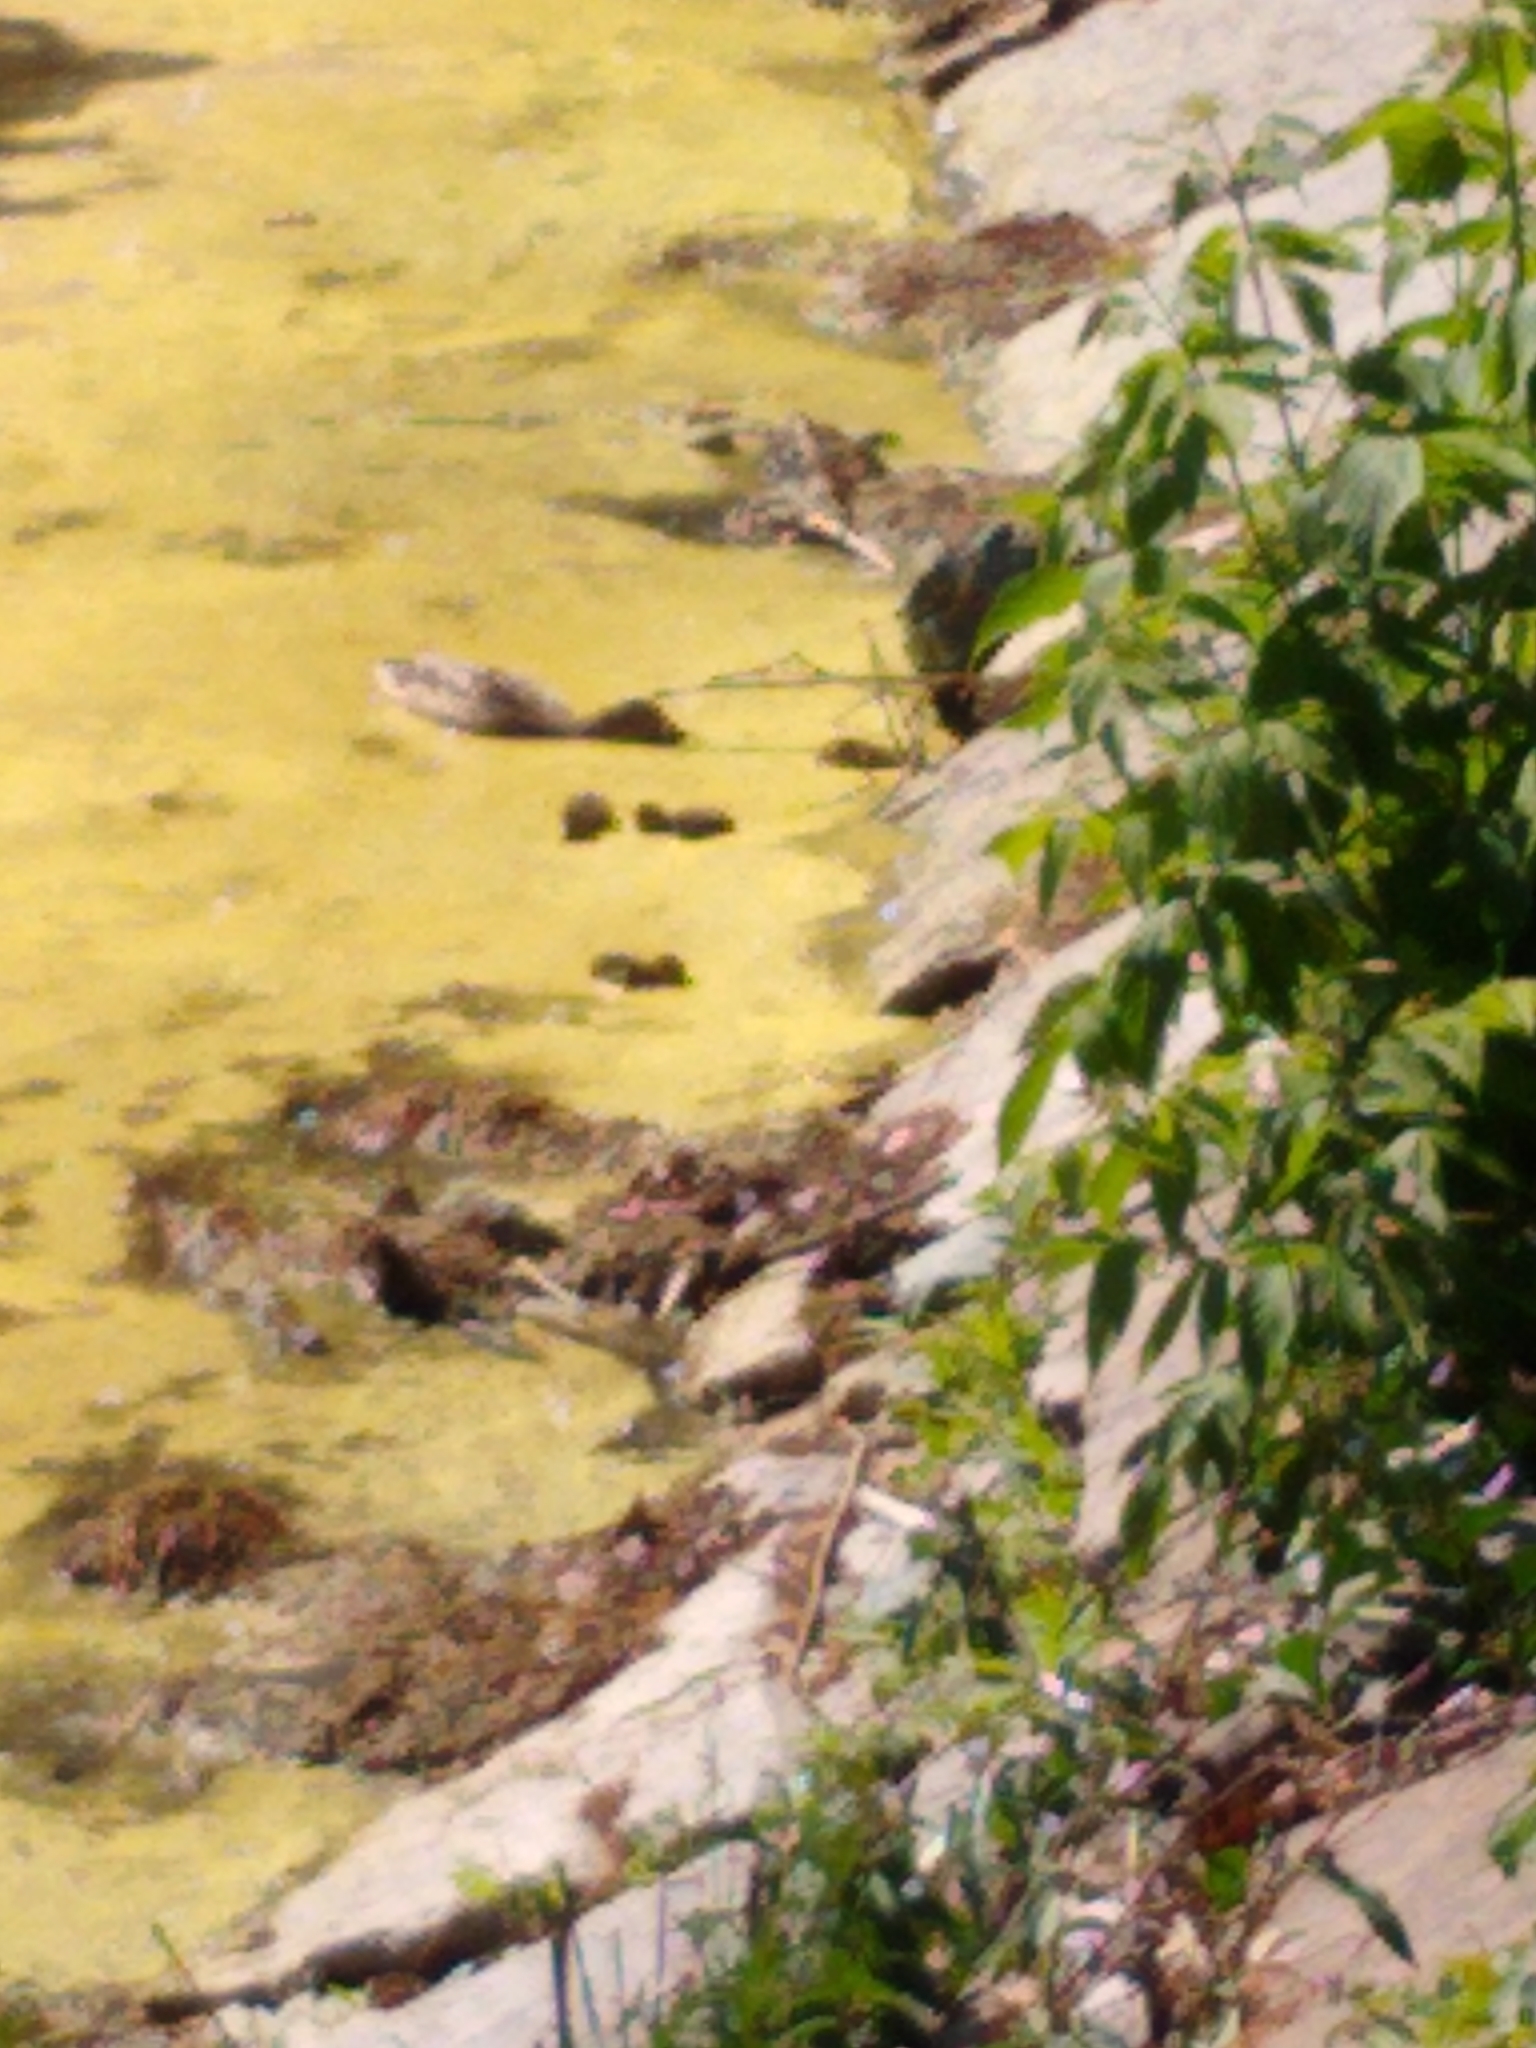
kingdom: Animalia
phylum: Chordata
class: Aves
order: Anseriformes
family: Anatidae
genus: Anas
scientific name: Anas platyrhynchos
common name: Mallard
